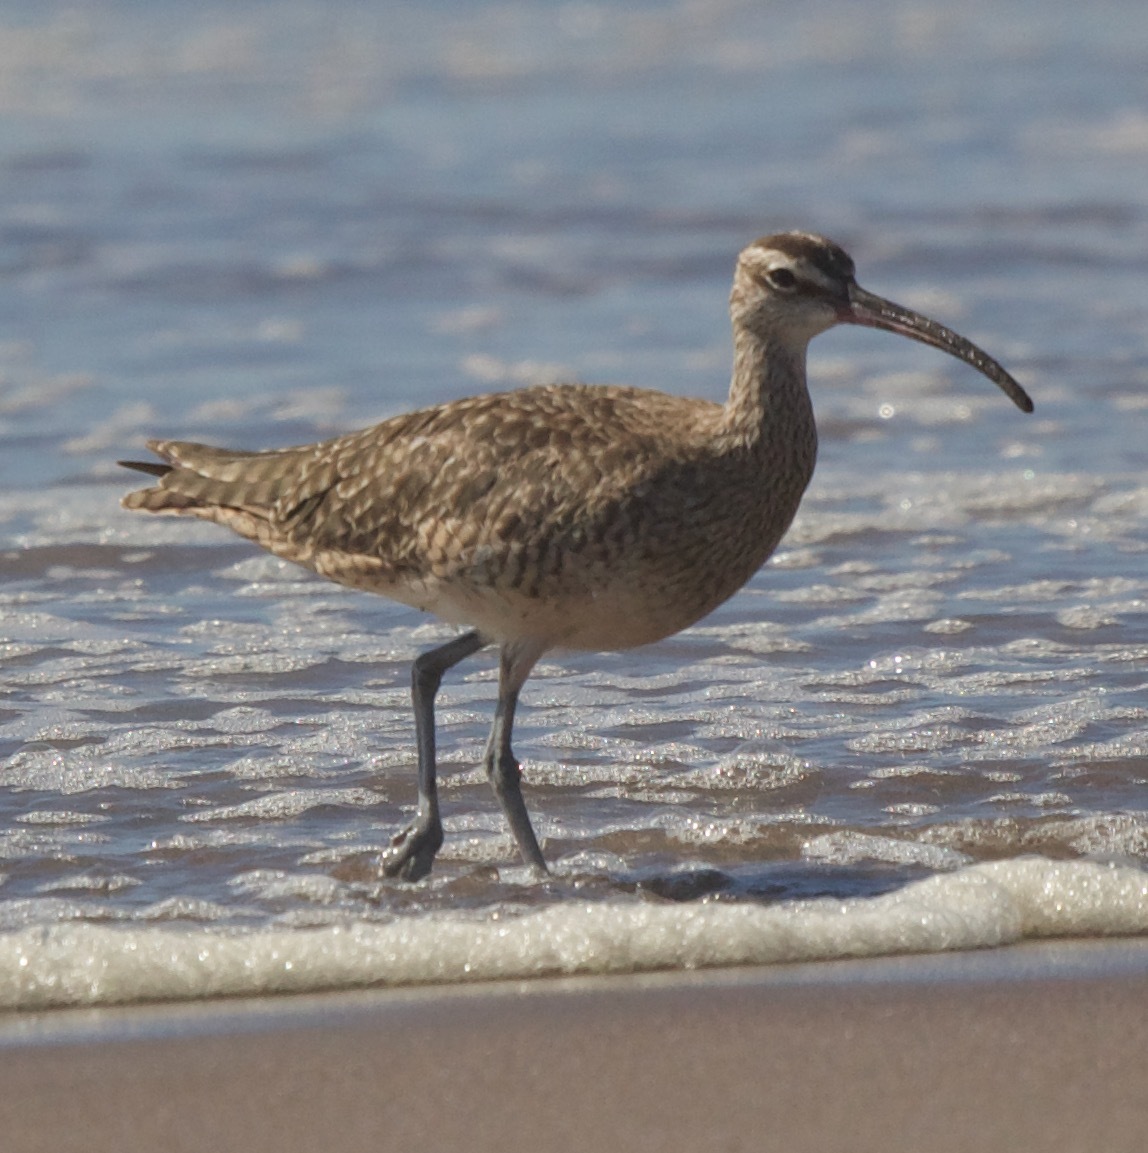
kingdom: Animalia
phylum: Chordata
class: Aves
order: Charadriiformes
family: Scolopacidae
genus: Numenius
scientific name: Numenius phaeopus
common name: Whimbrel
